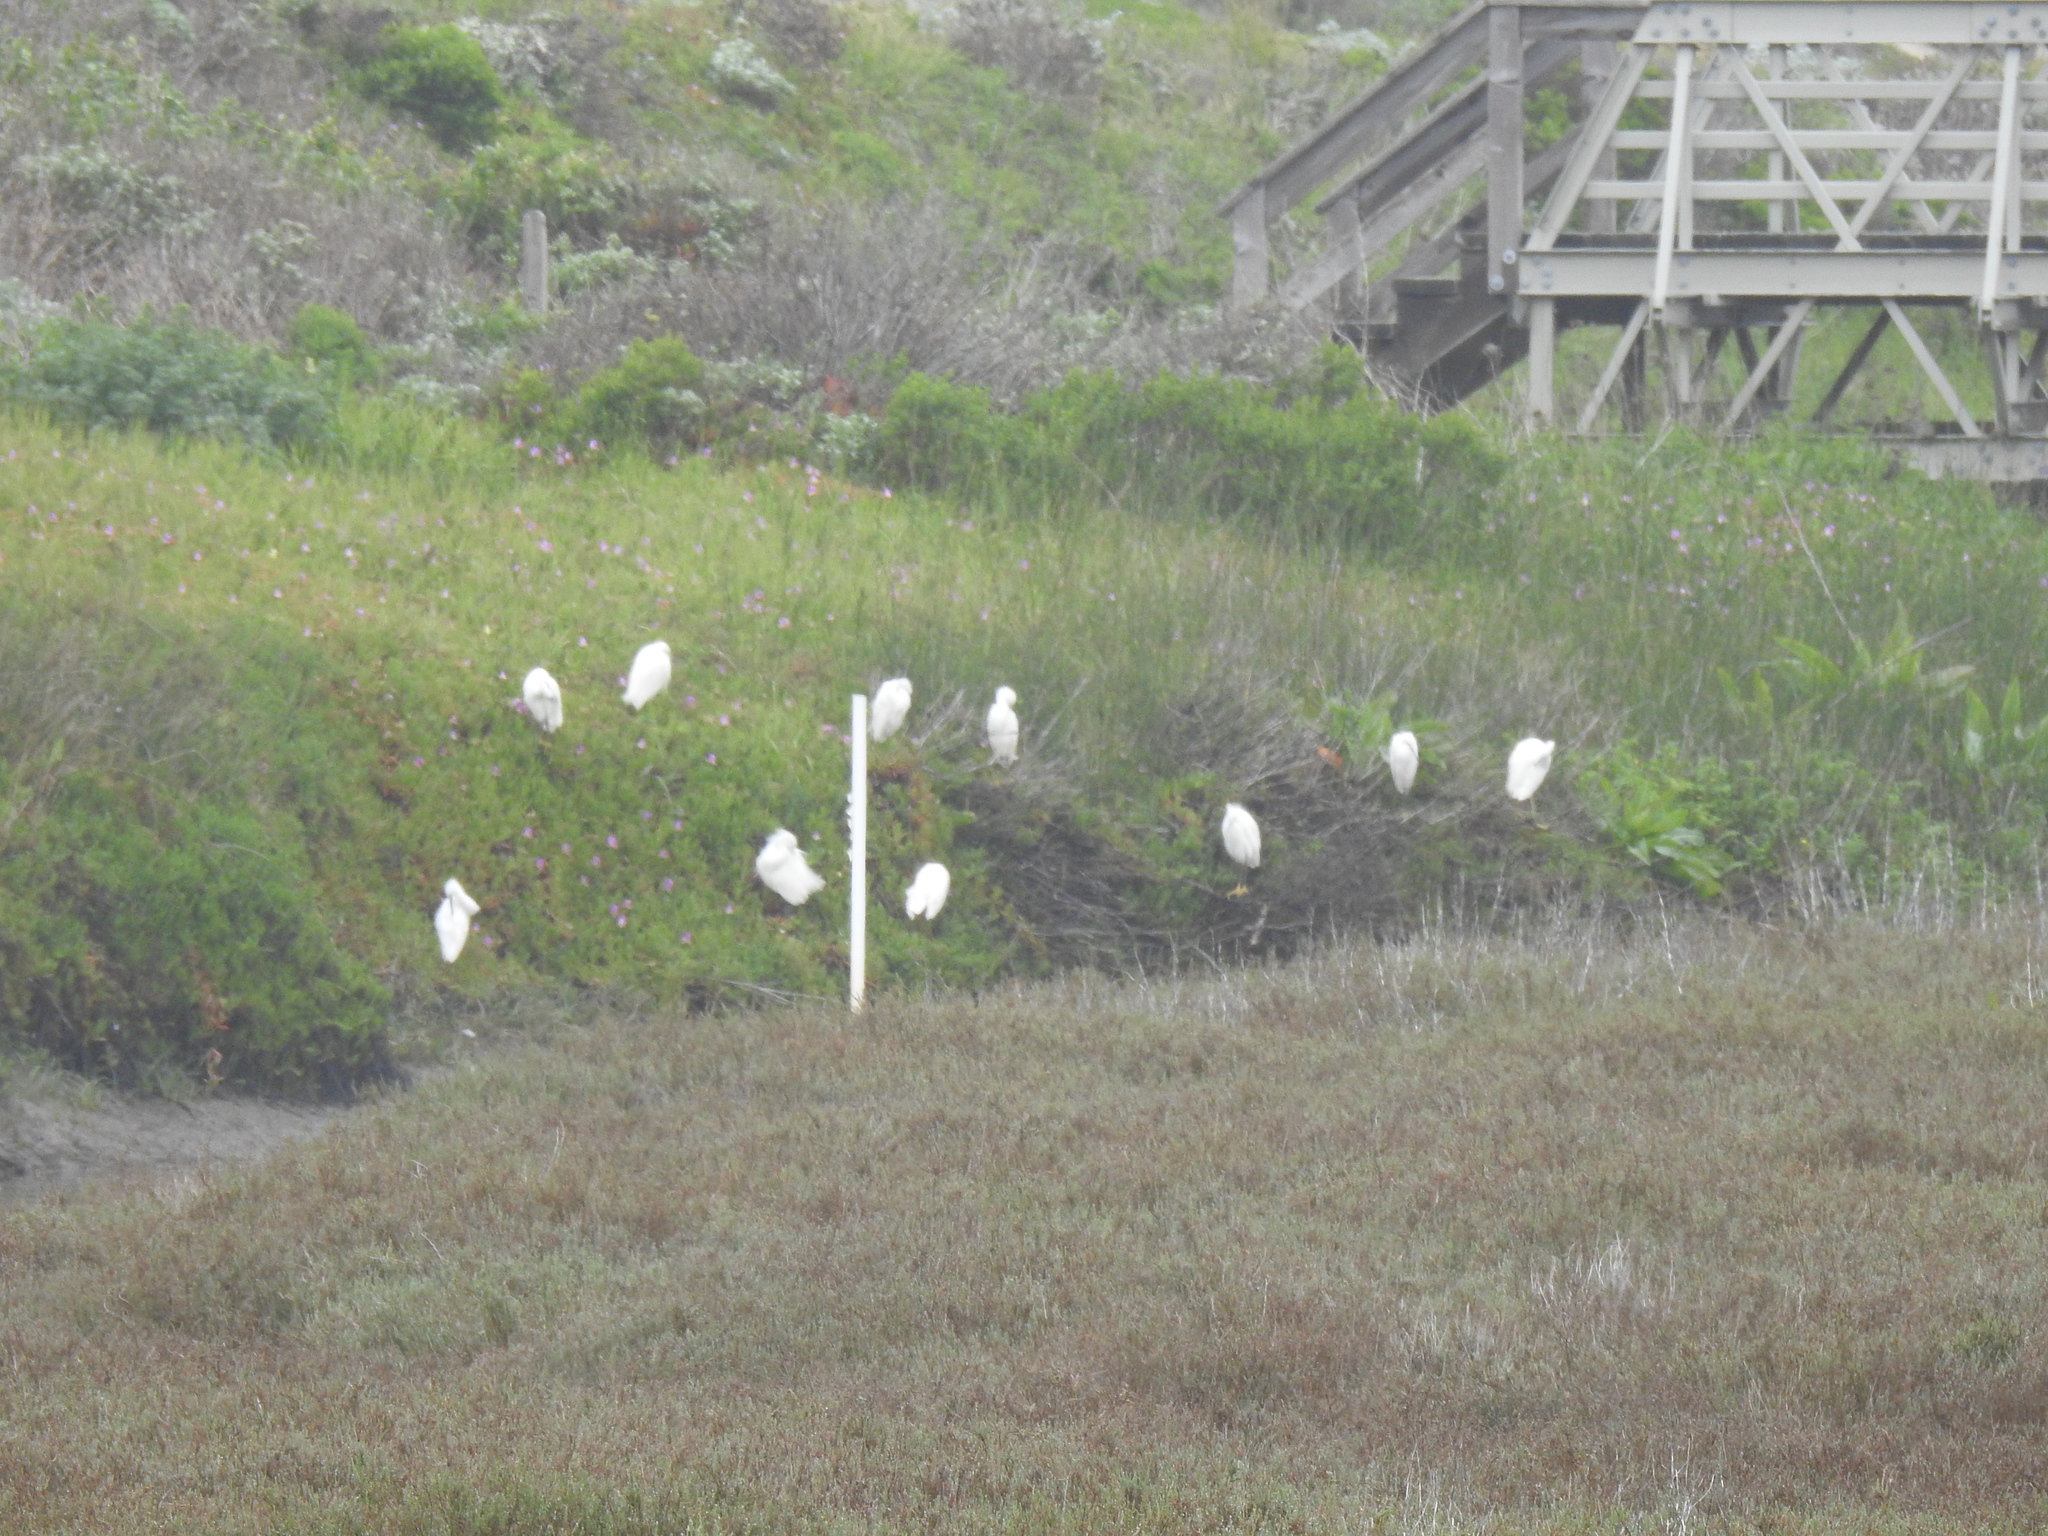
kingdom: Animalia
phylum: Chordata
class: Aves
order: Pelecaniformes
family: Ardeidae
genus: Egretta
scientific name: Egretta thula
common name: Snowy egret
